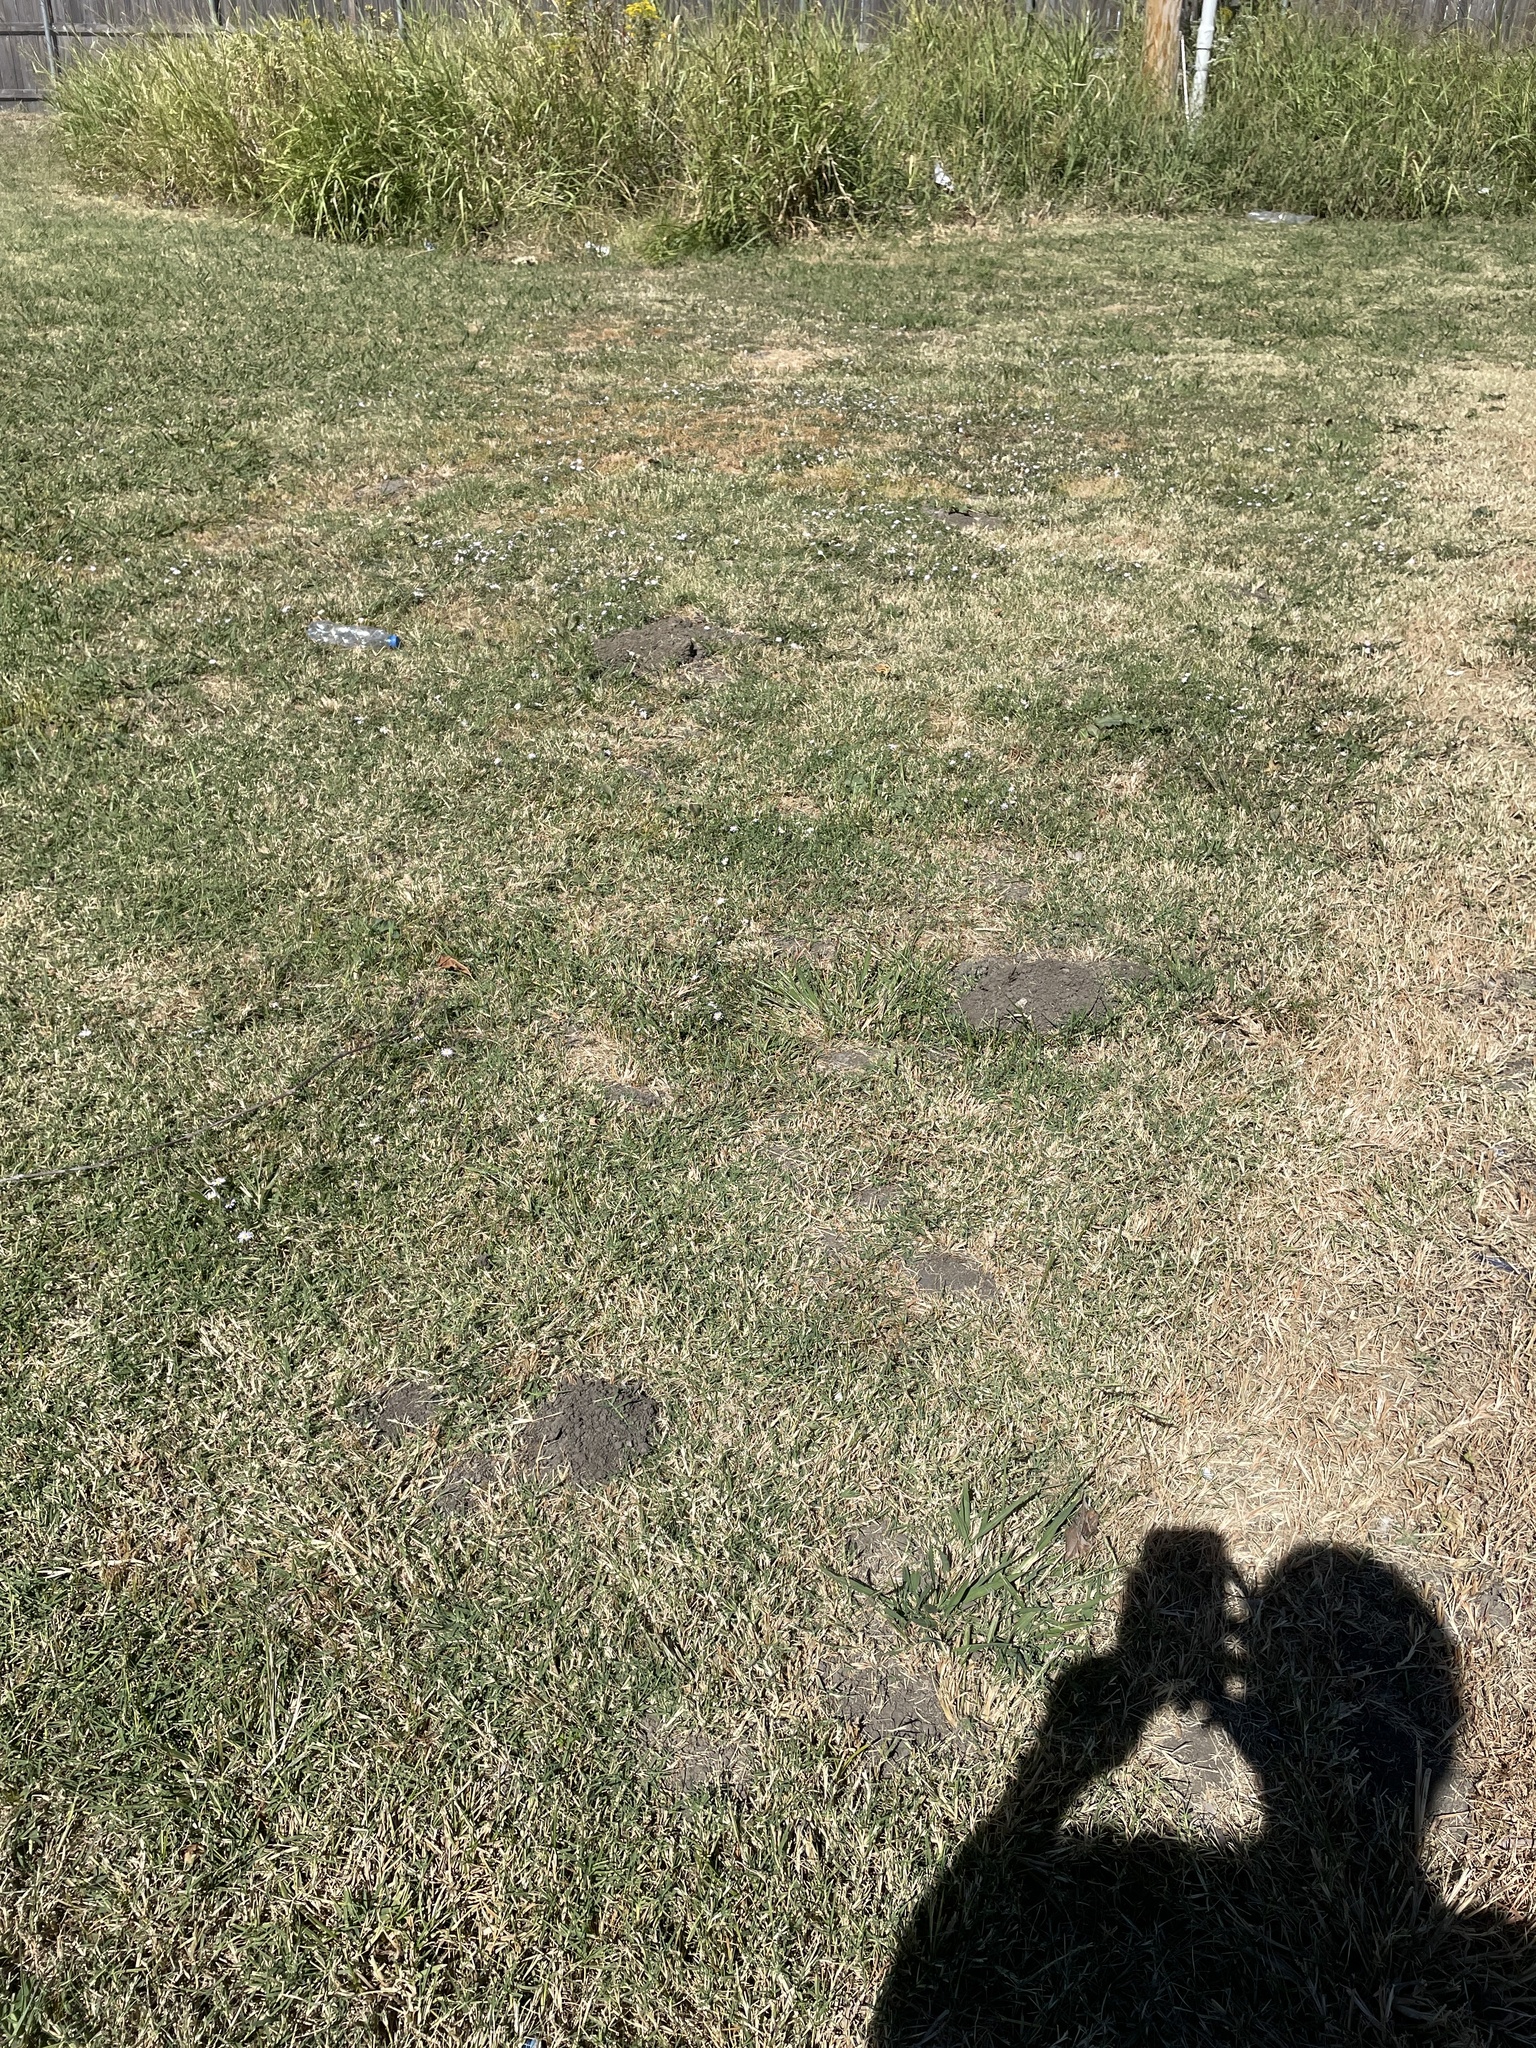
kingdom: Animalia
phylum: Chordata
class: Mammalia
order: Rodentia
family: Geomyidae
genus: Geomys
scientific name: Geomys breviceps
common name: Baird's pocket gopher
